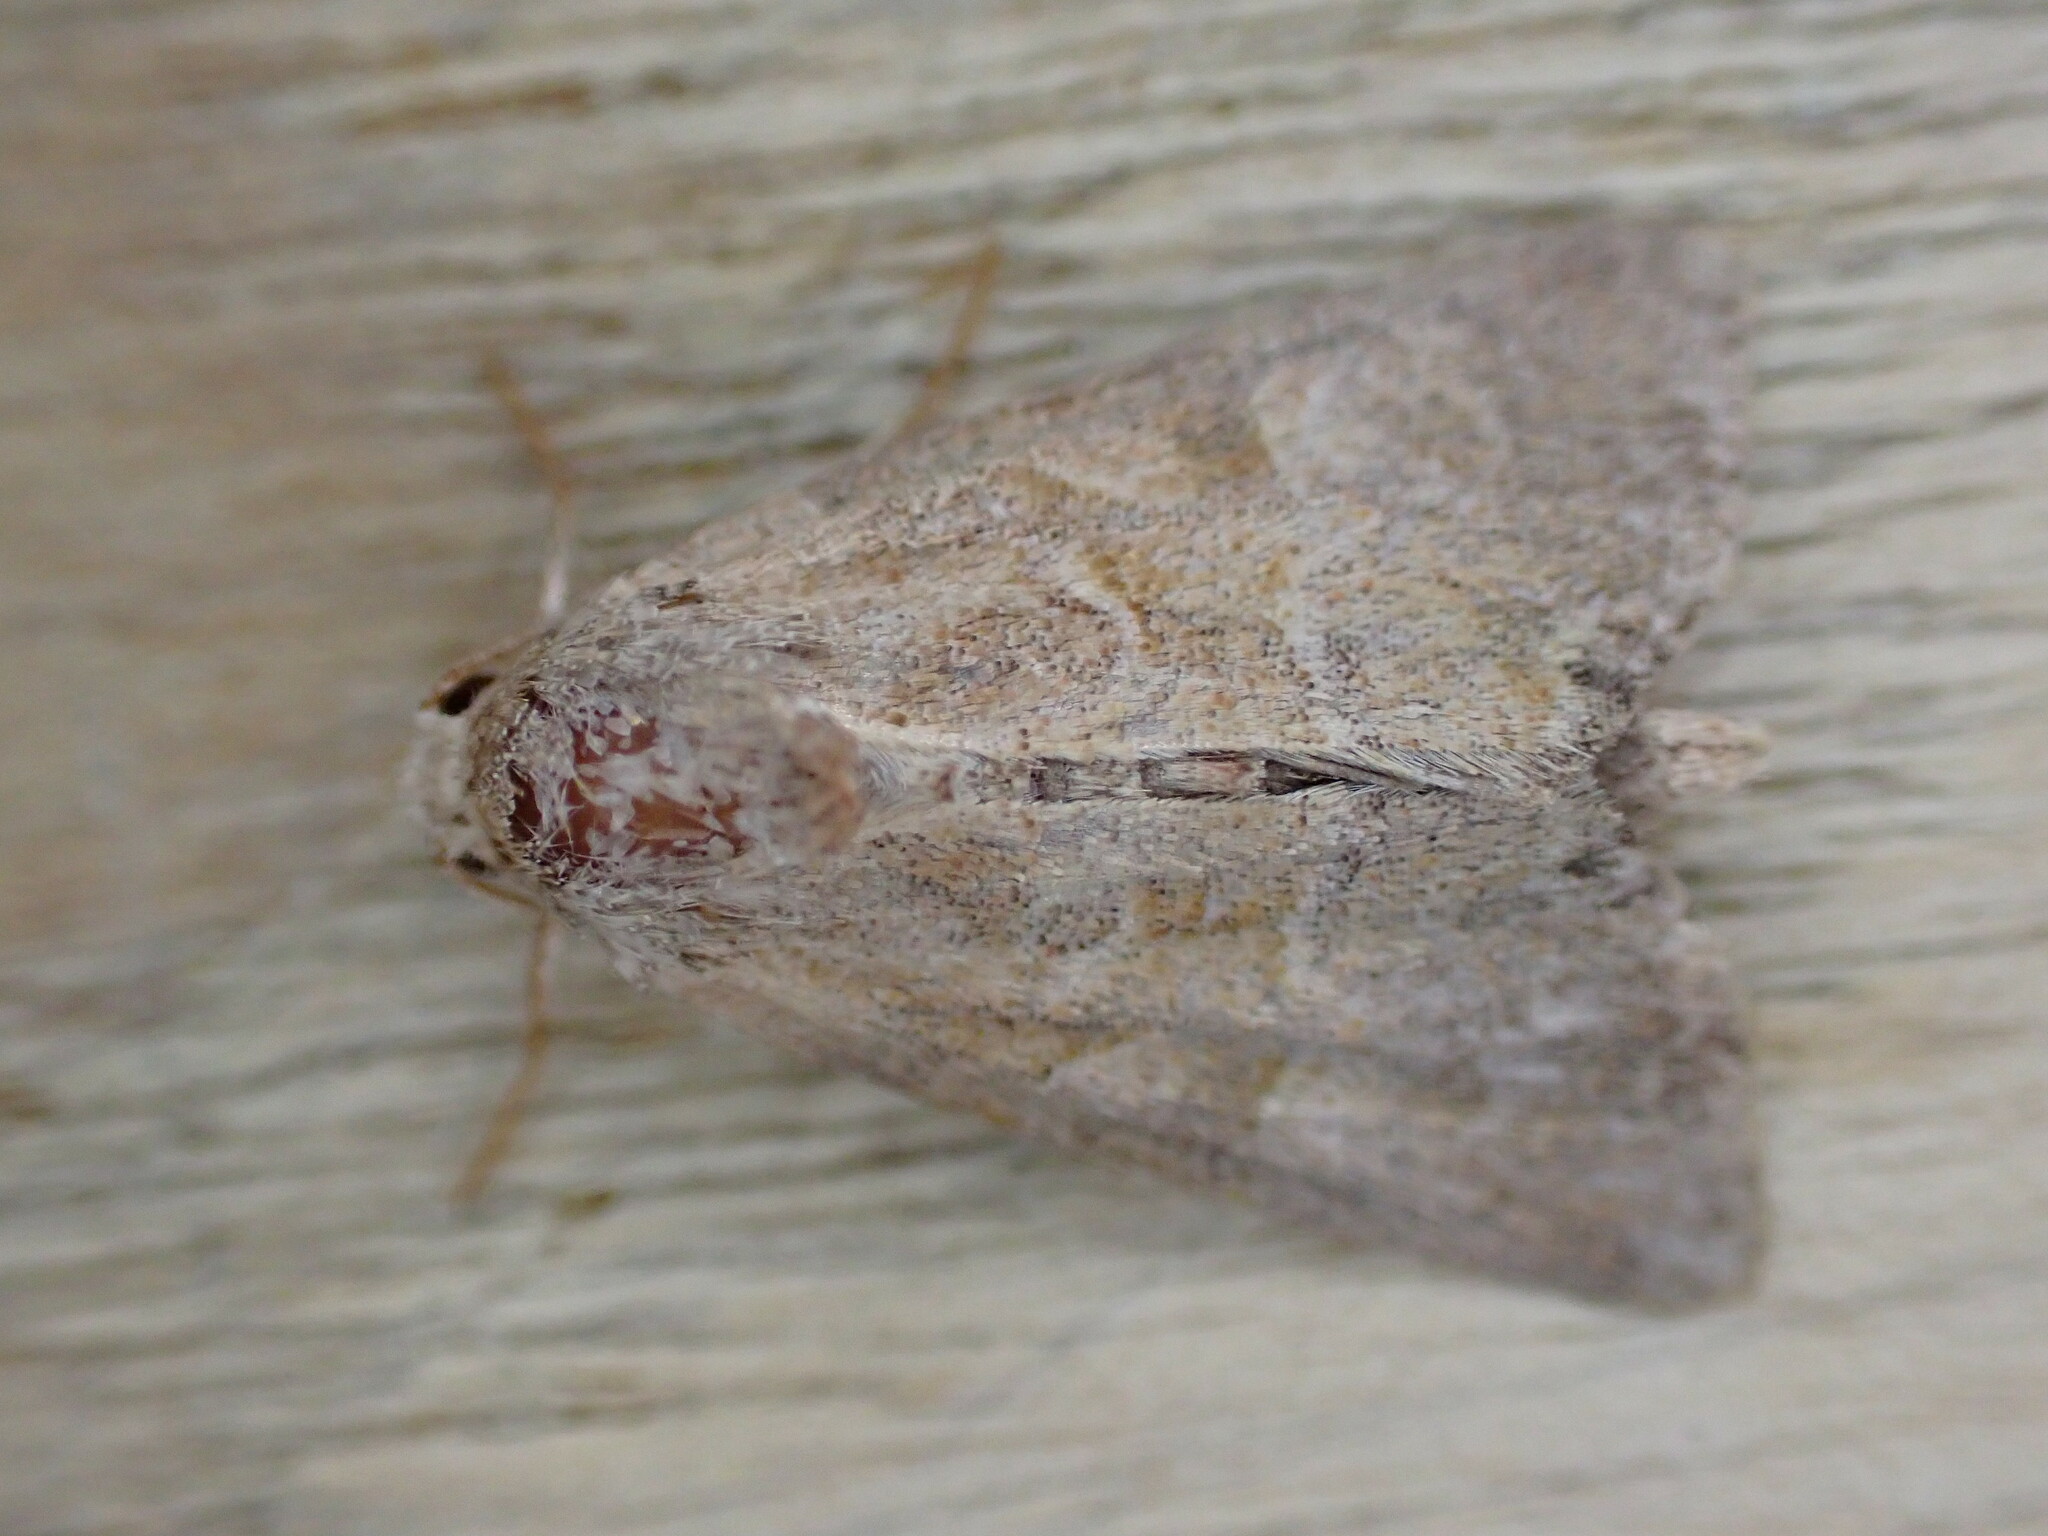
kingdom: Animalia
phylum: Arthropoda
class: Insecta
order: Lepidoptera
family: Noctuidae
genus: Mesoligia
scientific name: Mesoligia furuncula
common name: Cloaked minor
